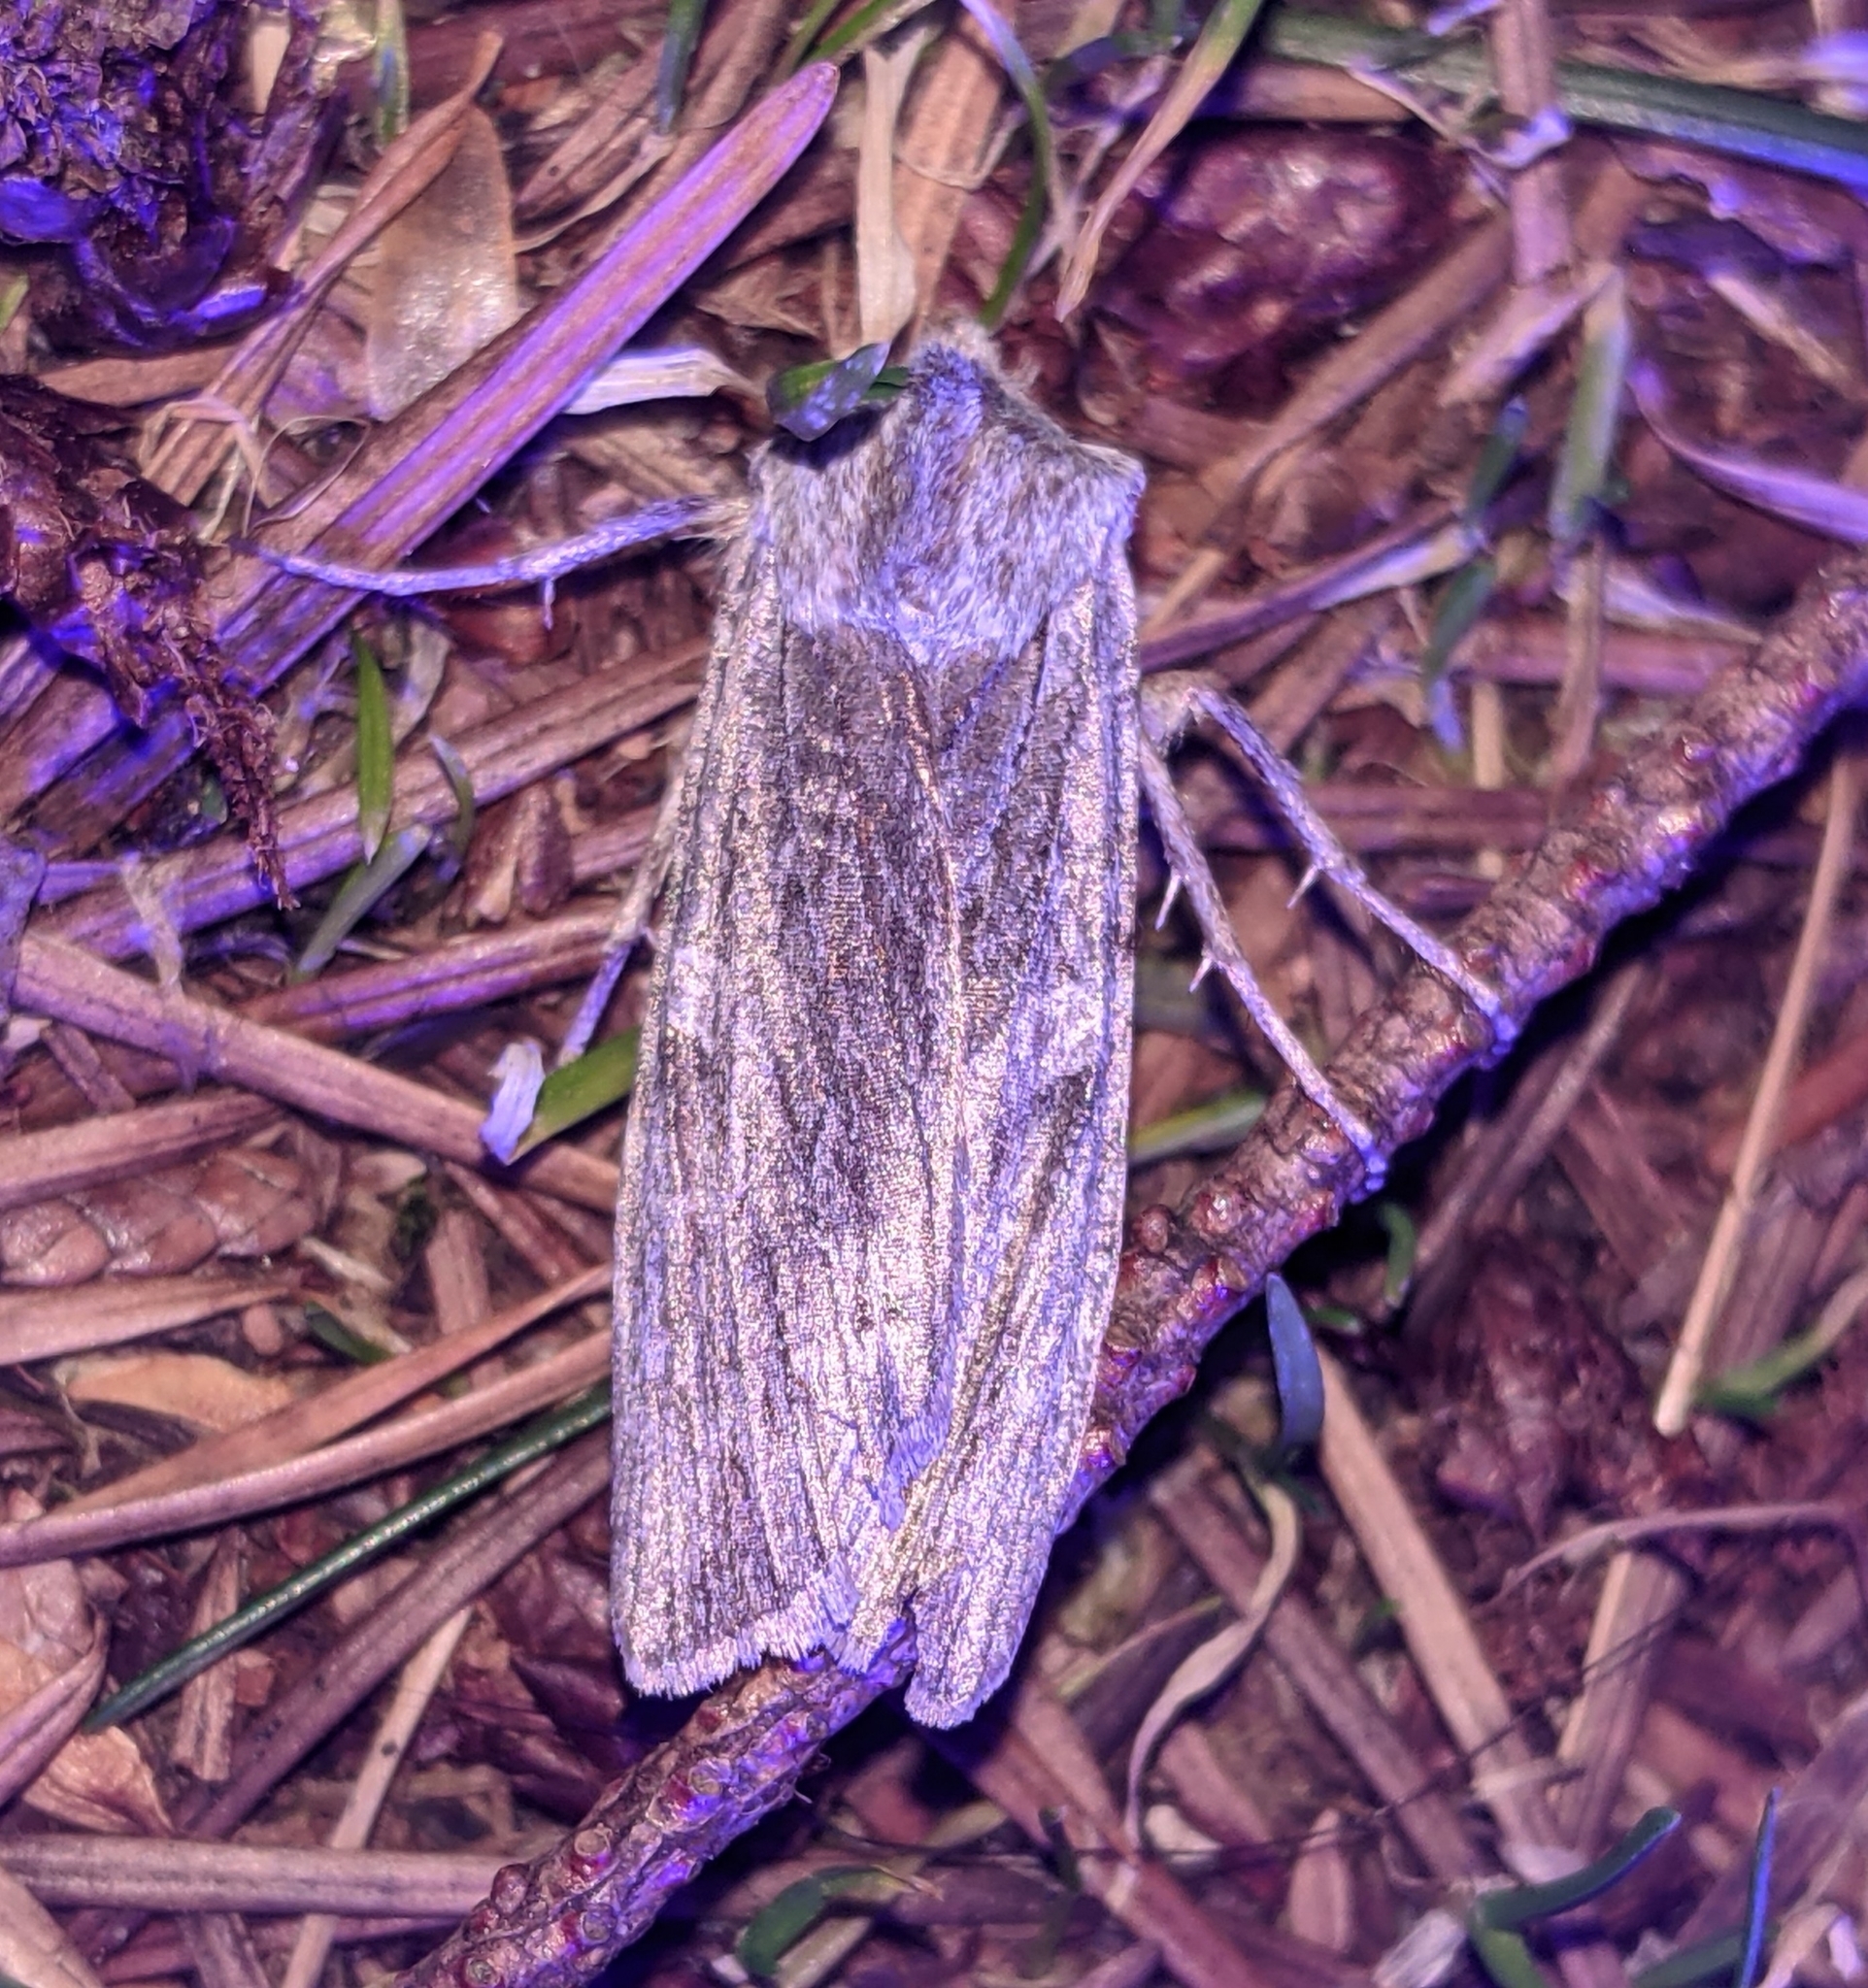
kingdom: Animalia
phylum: Arthropoda
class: Insecta
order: Lepidoptera
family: Noctuidae
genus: Lithophane
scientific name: Lithophane georgii
